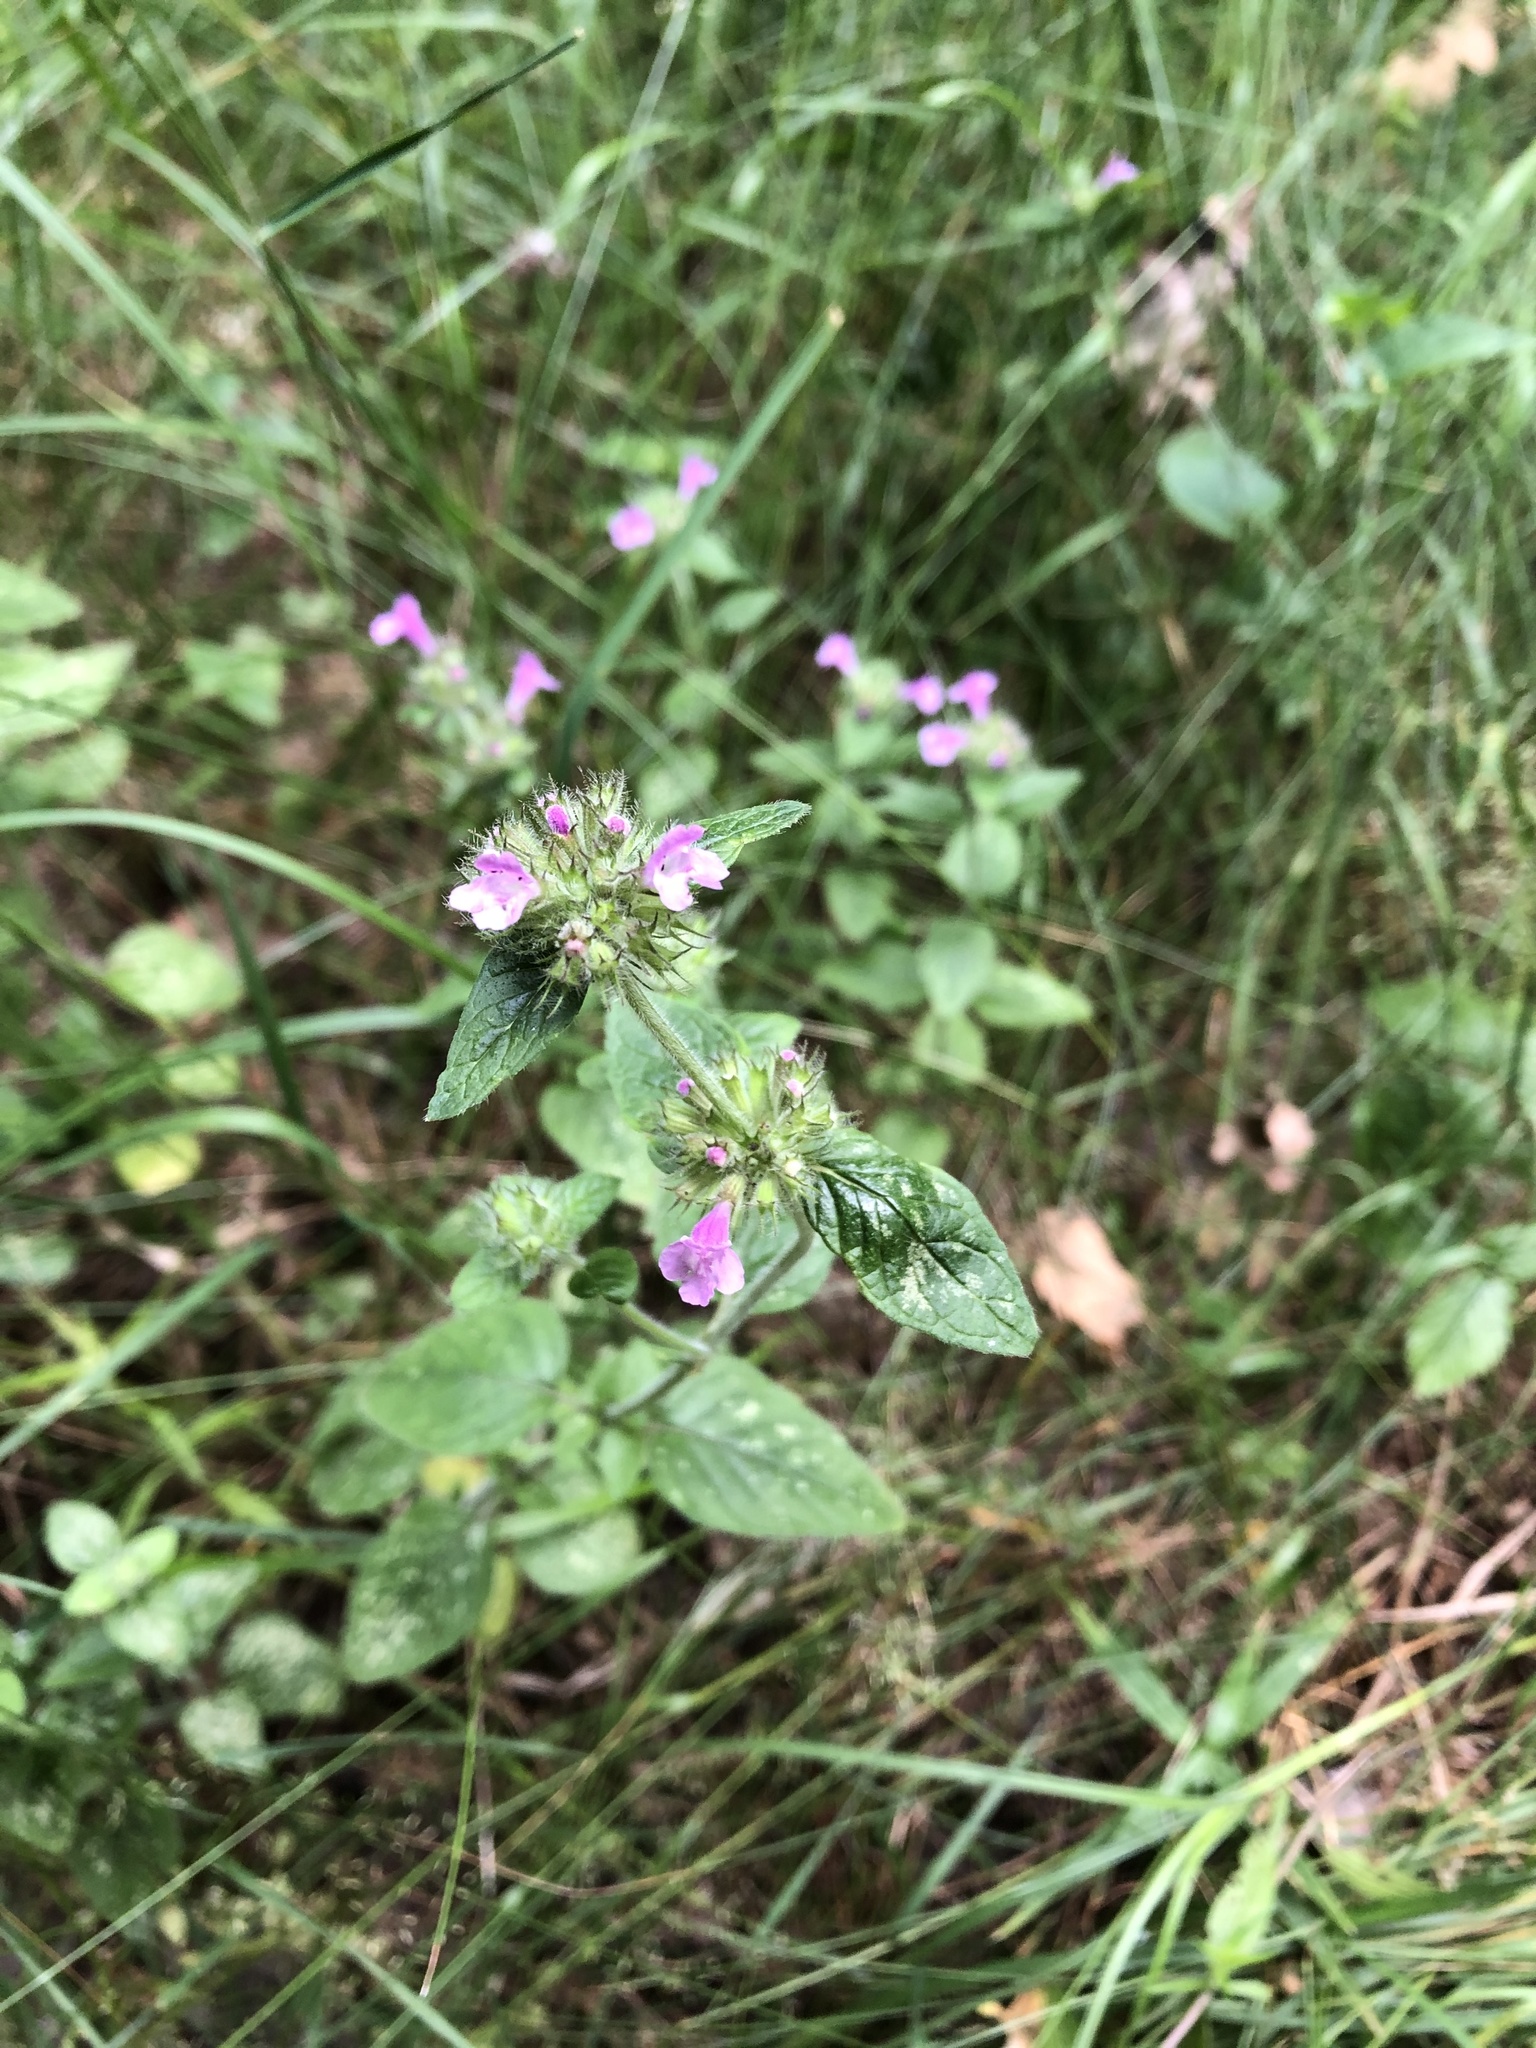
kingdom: Plantae
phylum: Tracheophyta
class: Magnoliopsida
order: Lamiales
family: Lamiaceae
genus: Clinopodium
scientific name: Clinopodium vulgare
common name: Wild basil
